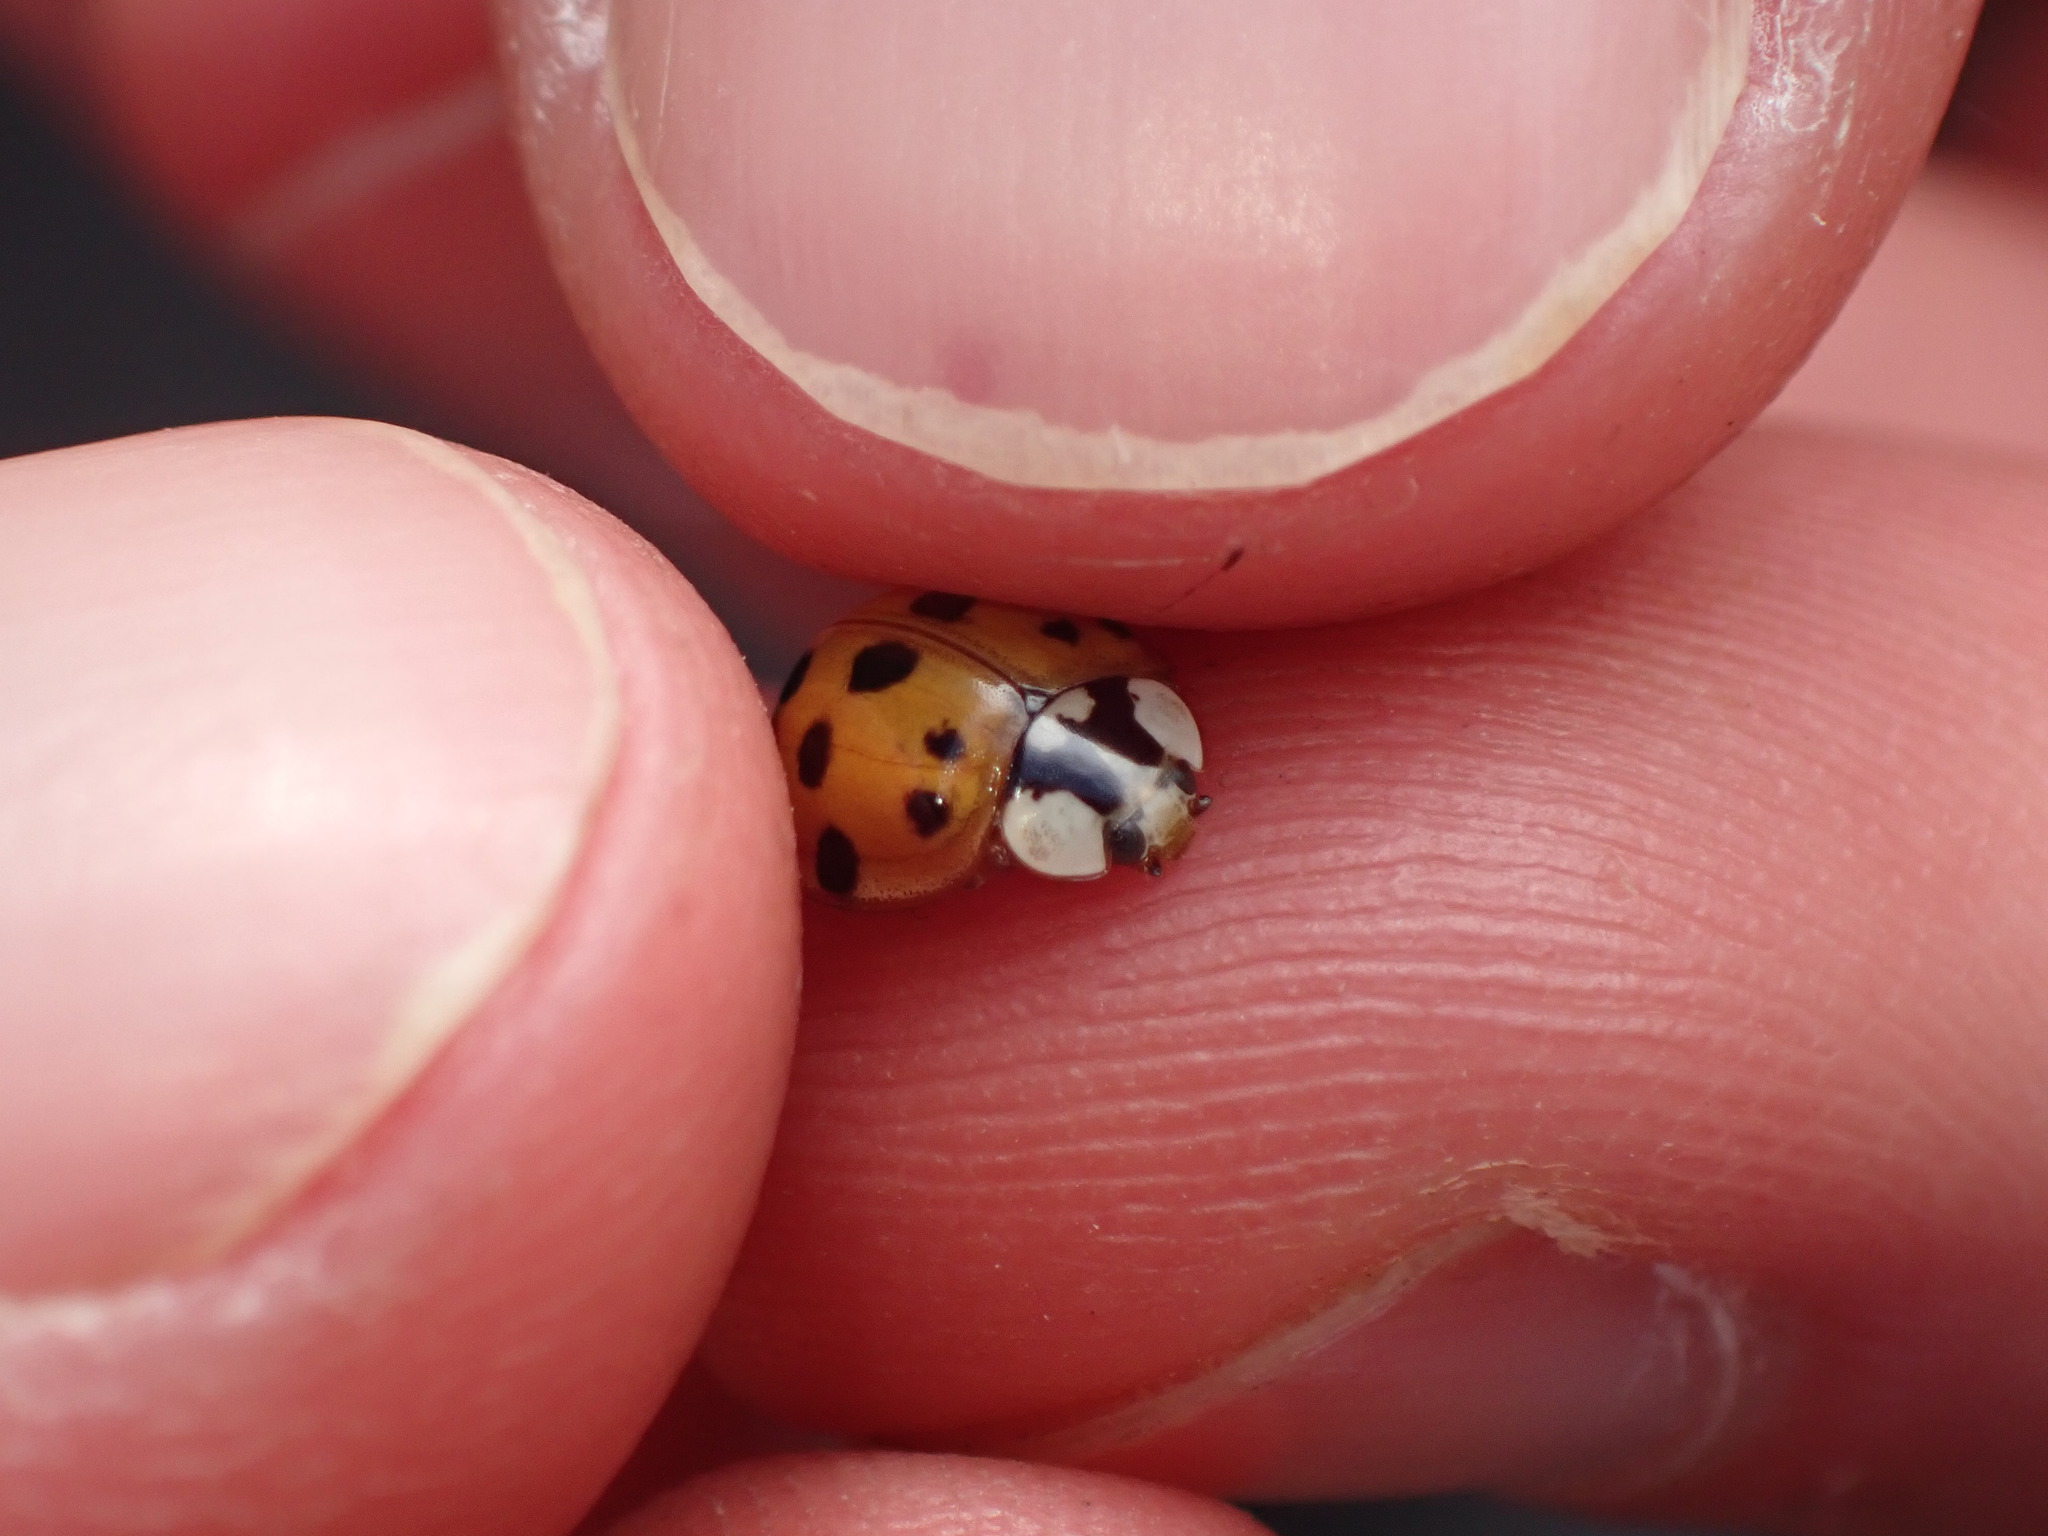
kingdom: Animalia
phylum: Arthropoda
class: Insecta
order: Coleoptera
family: Coccinellidae
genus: Harmonia
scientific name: Harmonia axyridis
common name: Harlequin ladybird
